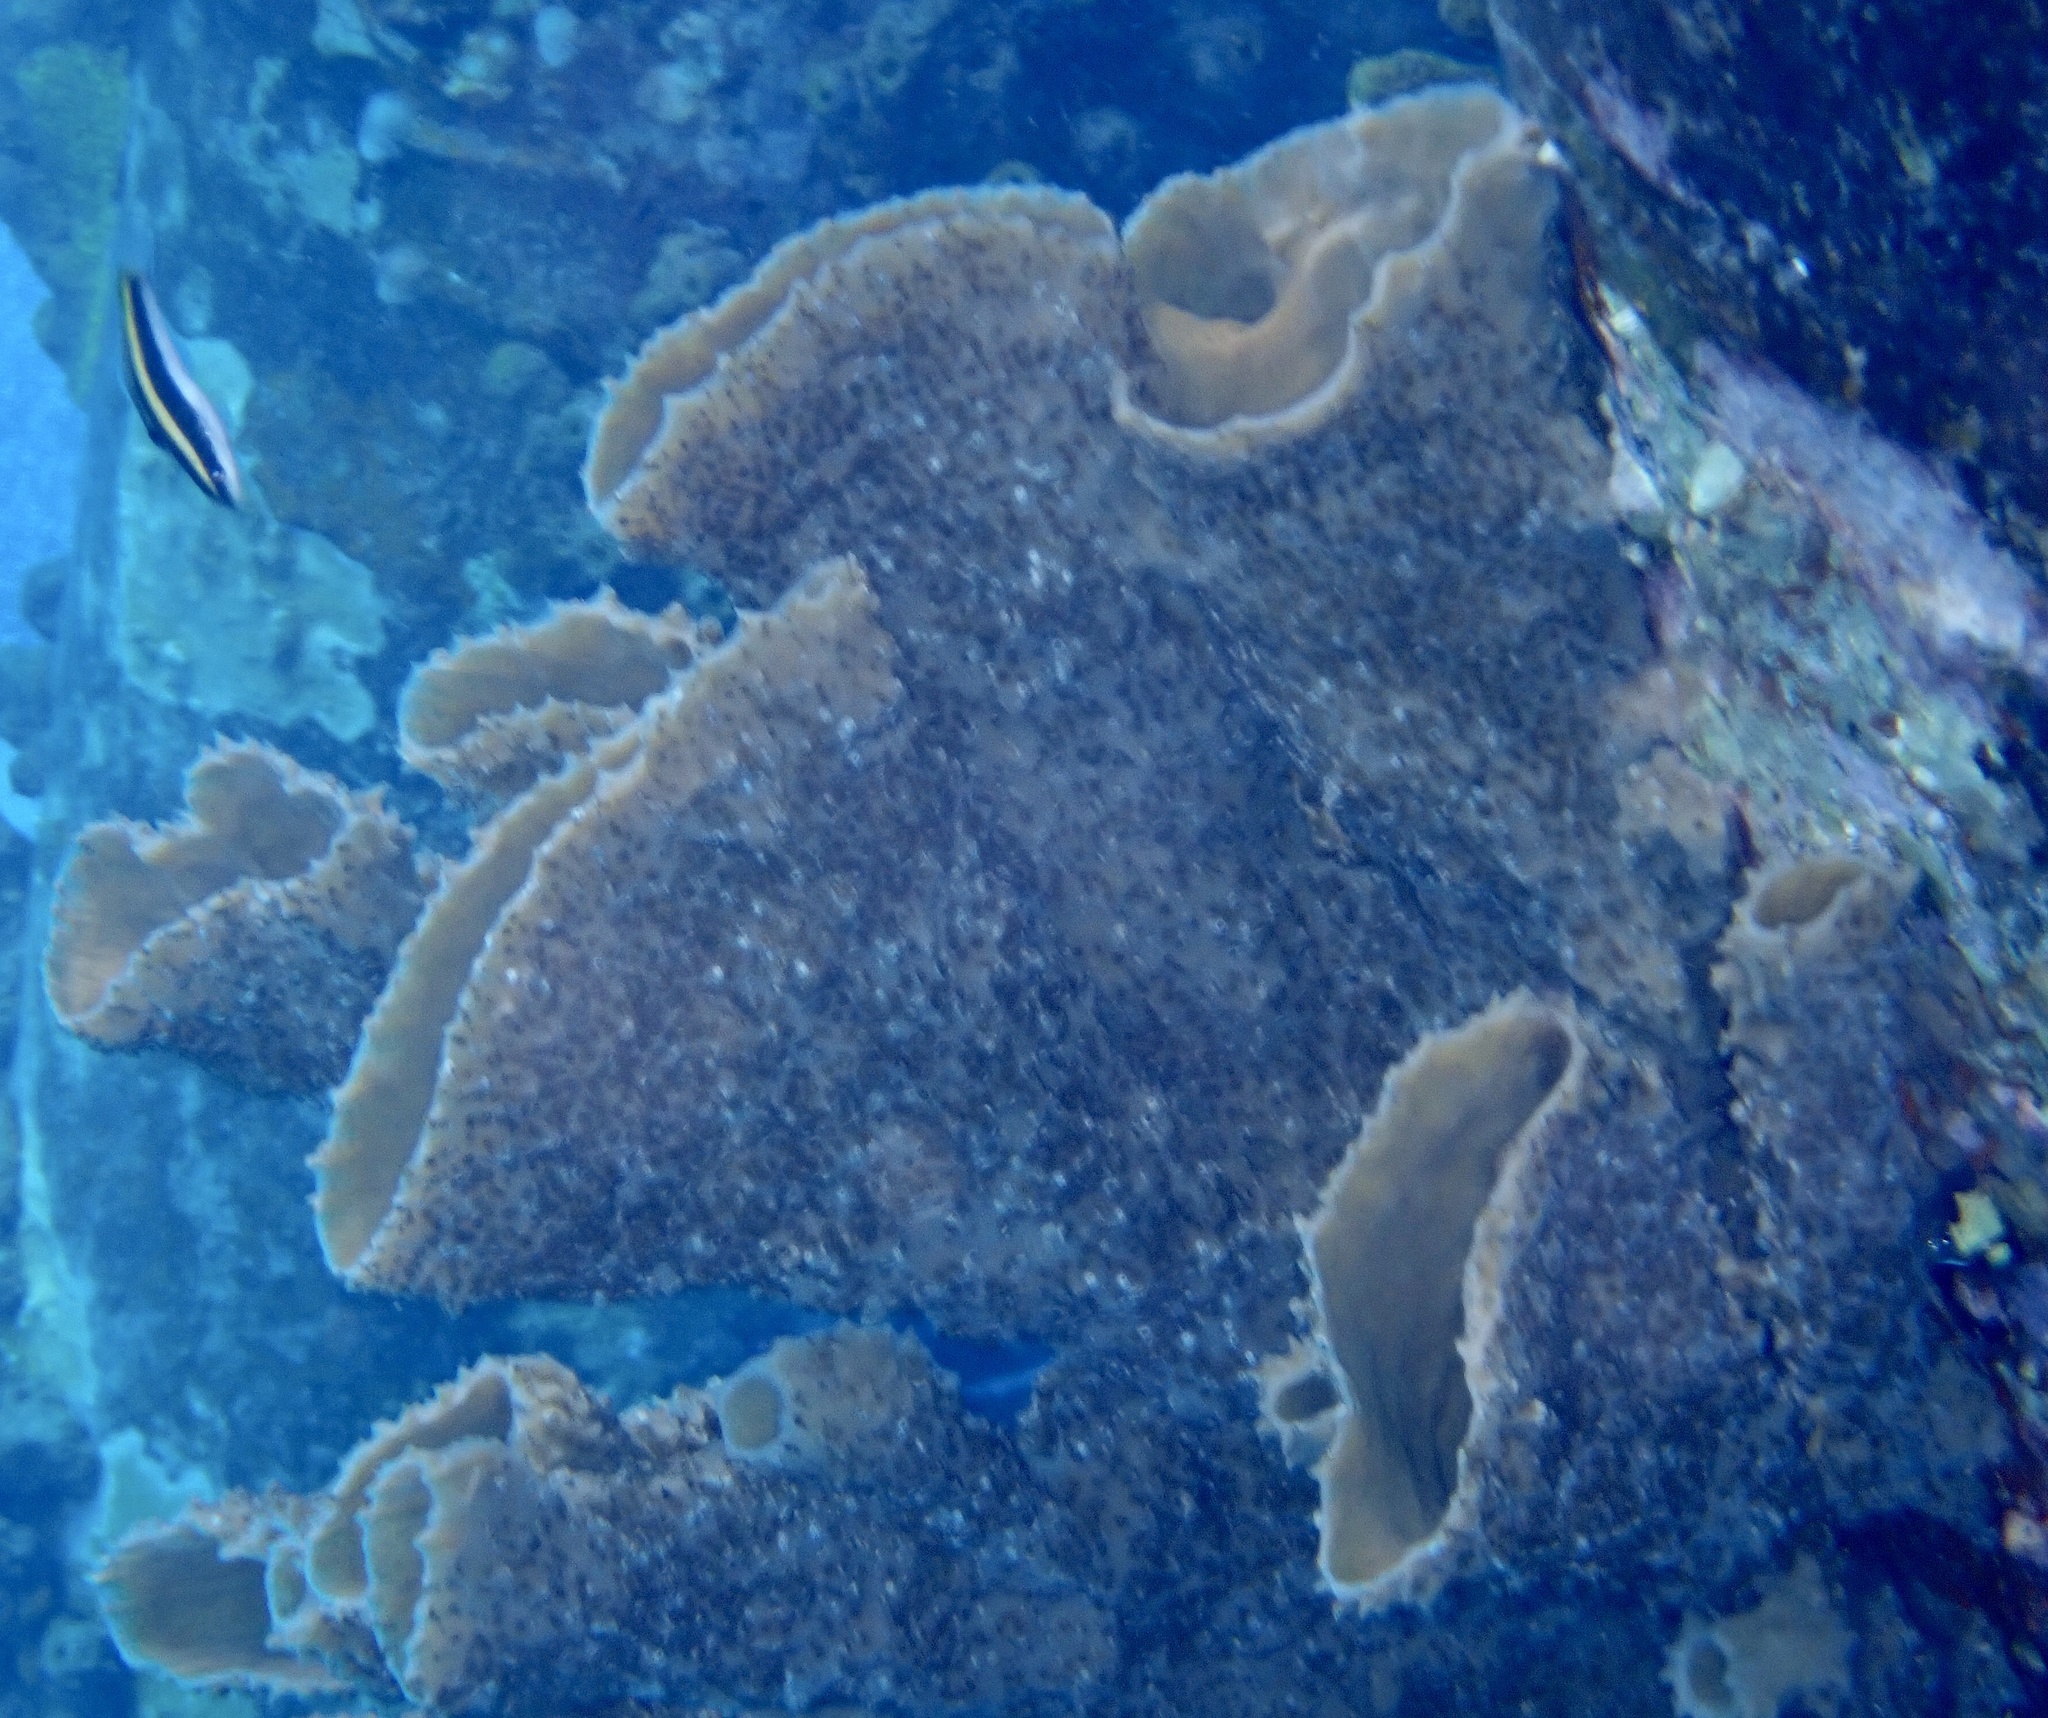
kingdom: Animalia
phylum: Porifera
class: Demospongiae
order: Haplosclerida
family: Callyspongiidae
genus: Callyspongia
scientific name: Callyspongia aculeata
